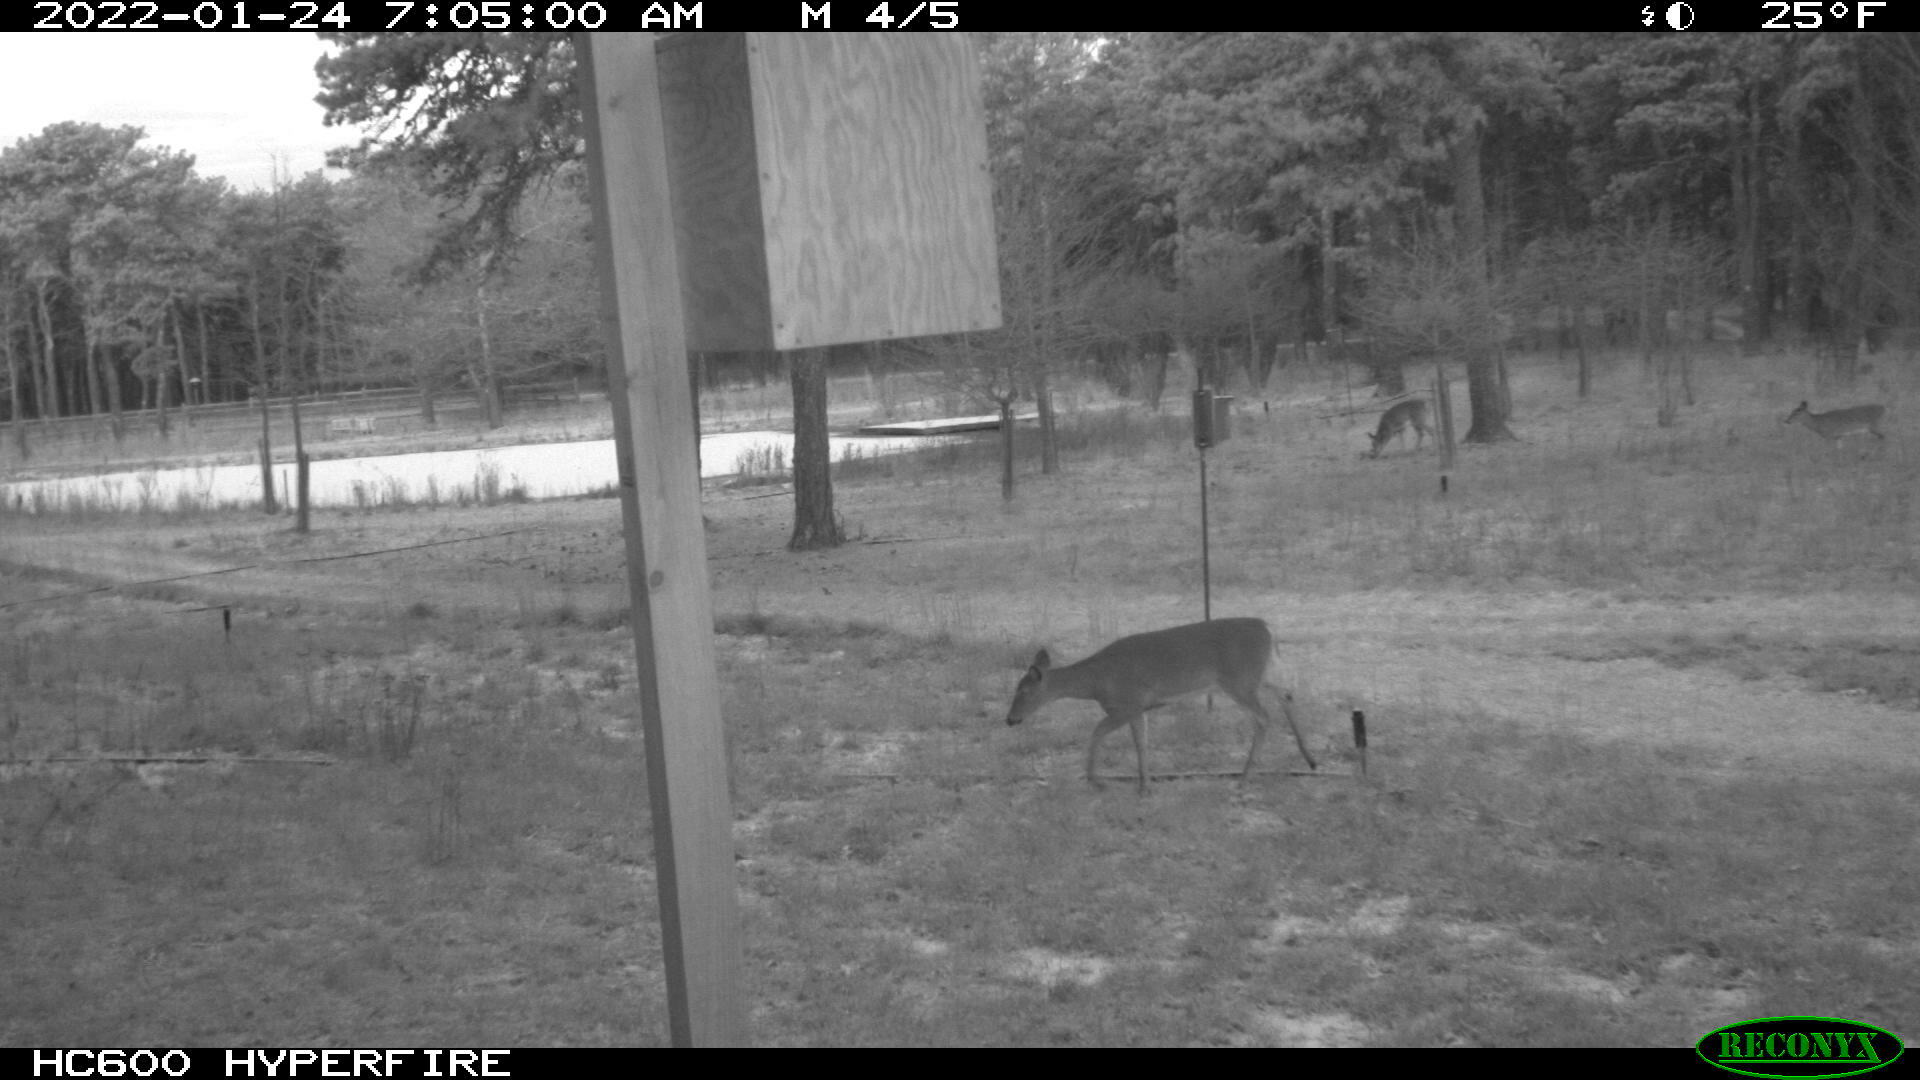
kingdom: Animalia
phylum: Chordata
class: Mammalia
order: Artiodactyla
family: Cervidae
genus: Odocoileus
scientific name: Odocoileus virginianus
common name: White-tailed deer
